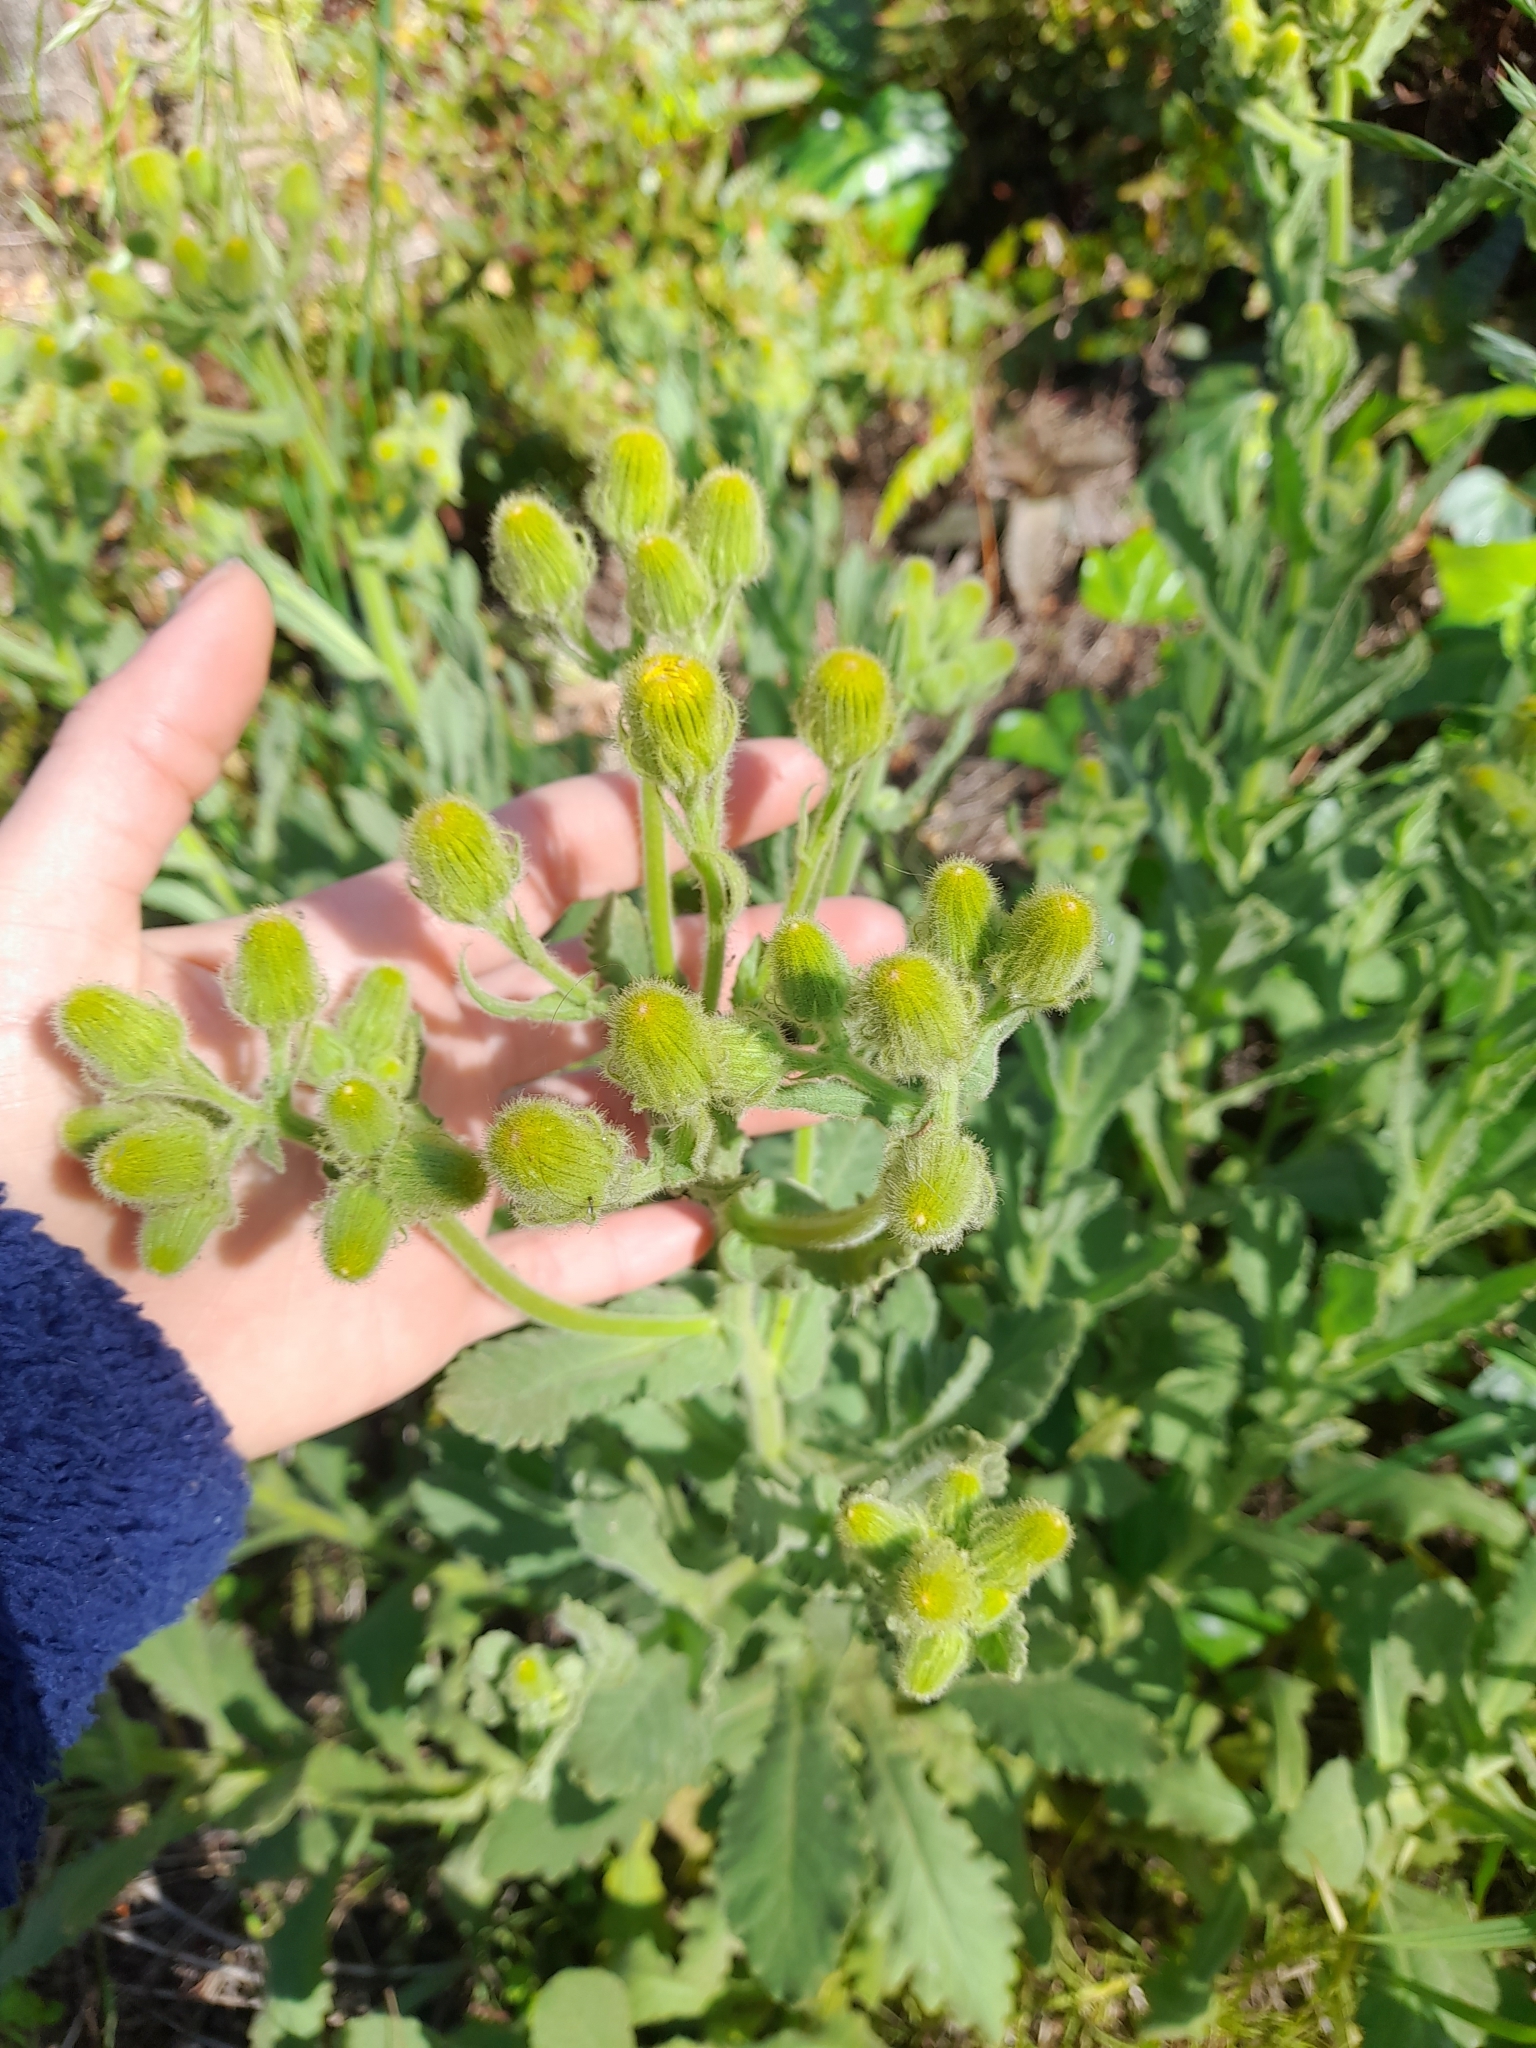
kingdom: Plantae
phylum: Tracheophyta
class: Magnoliopsida
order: Asterales
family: Asteraceae
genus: Senecio
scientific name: Senecio selloi
